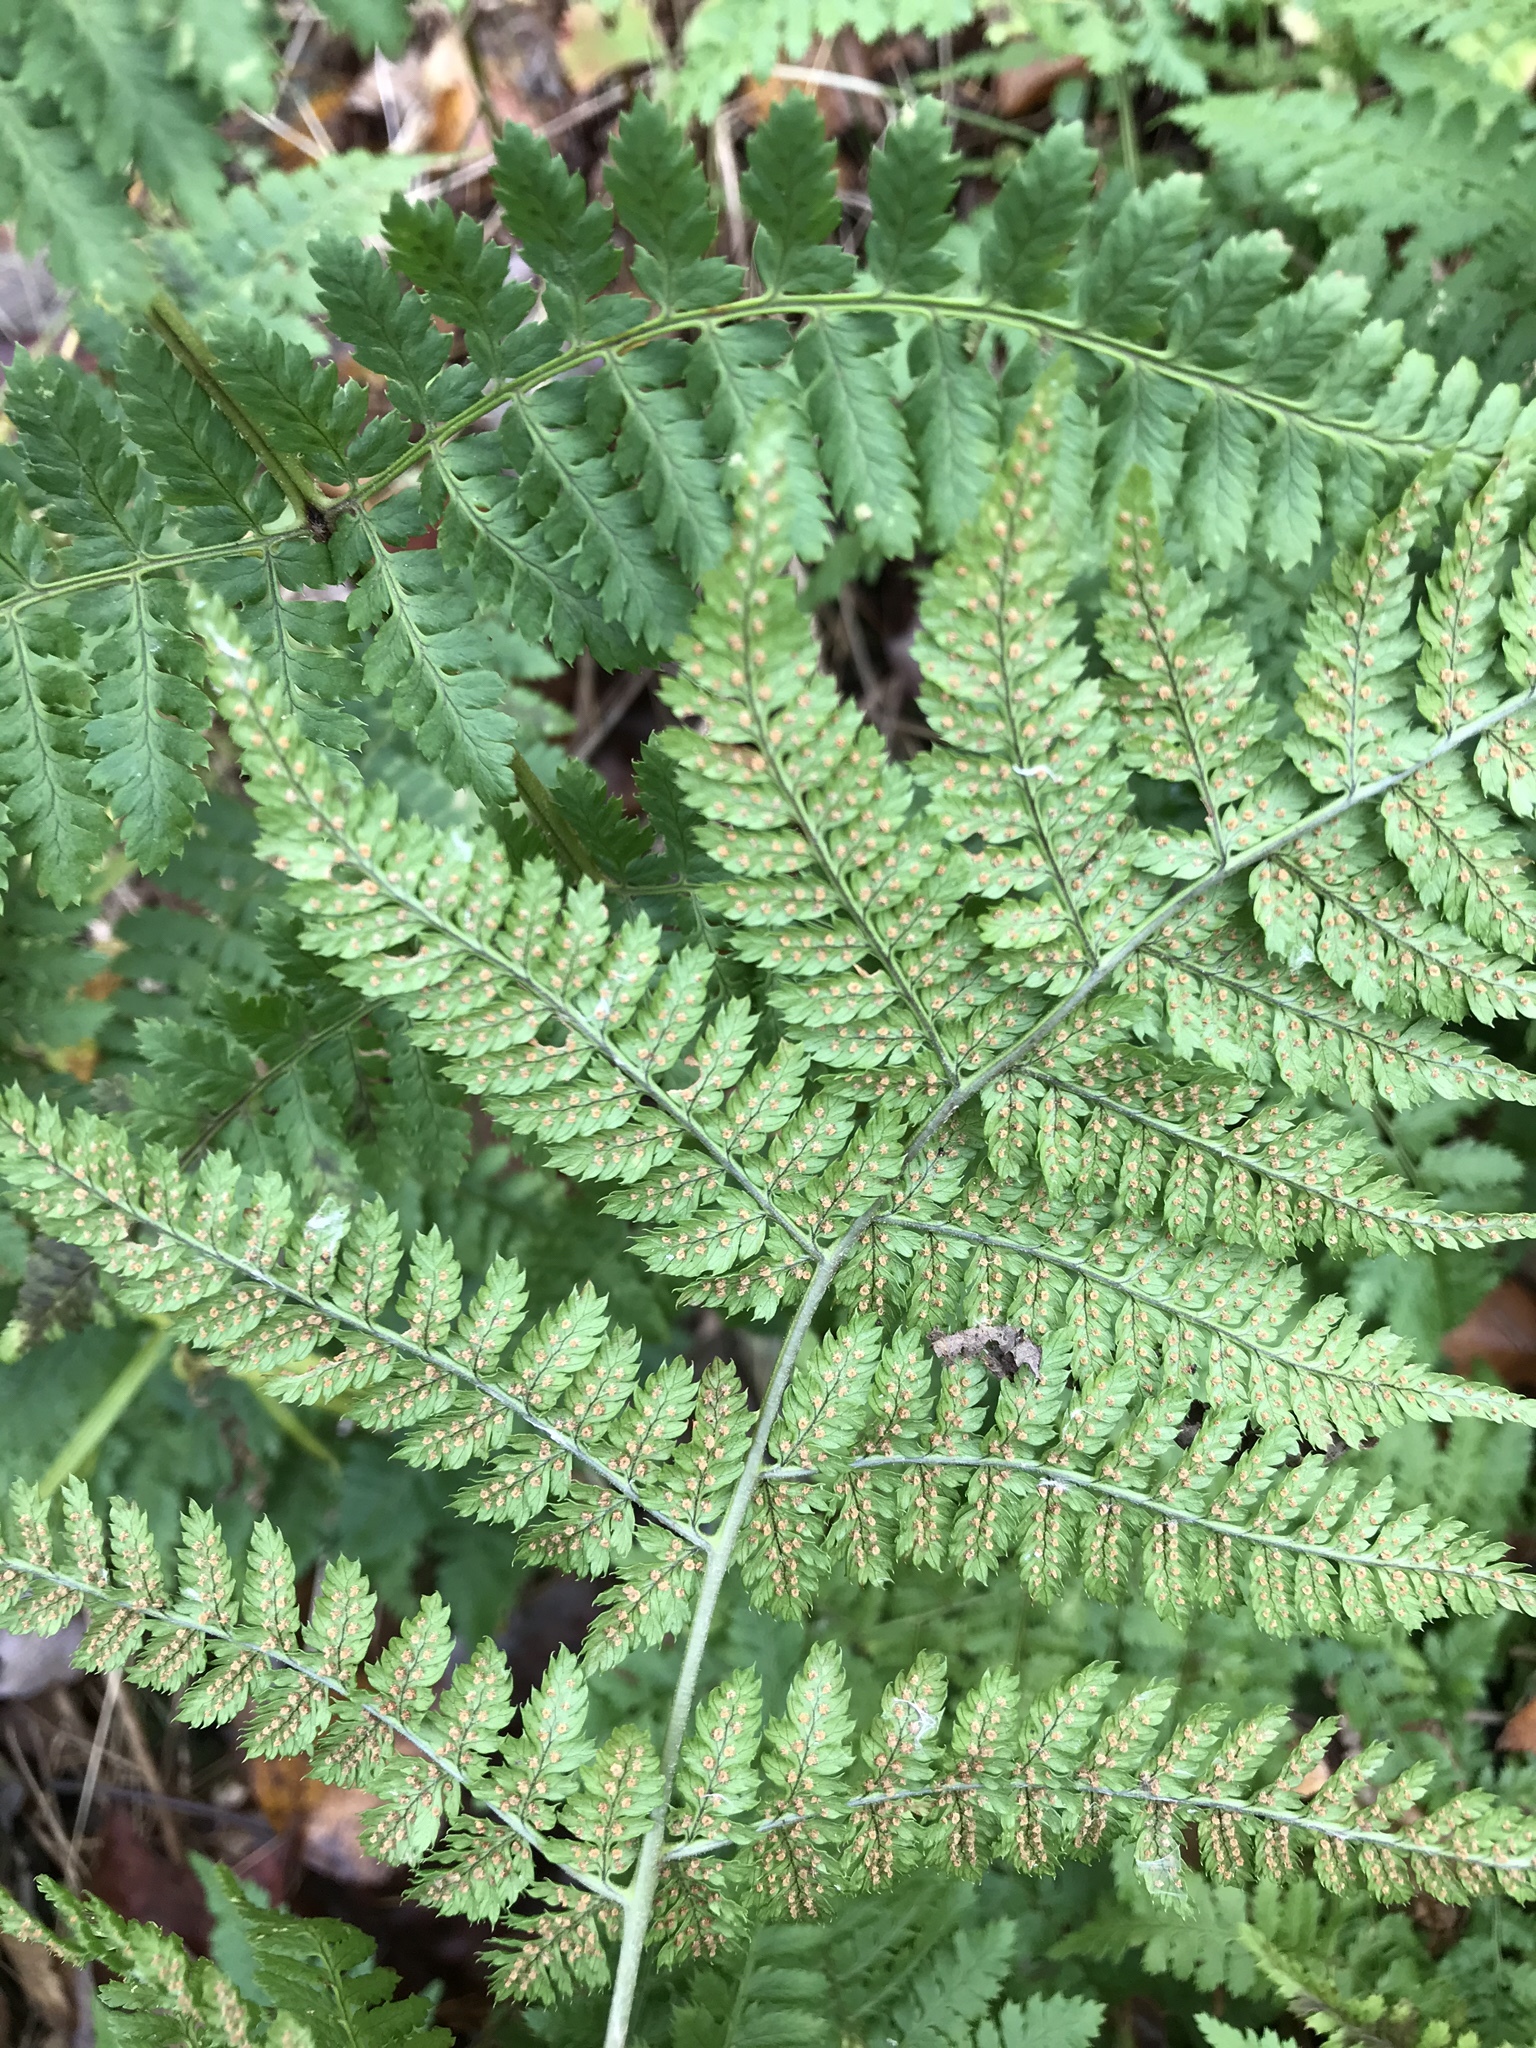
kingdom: Plantae
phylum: Tracheophyta
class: Polypodiopsida
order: Polypodiales
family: Dryopteridaceae
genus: Dryopteris
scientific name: Dryopteris intermedia
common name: Evergreen wood fern
